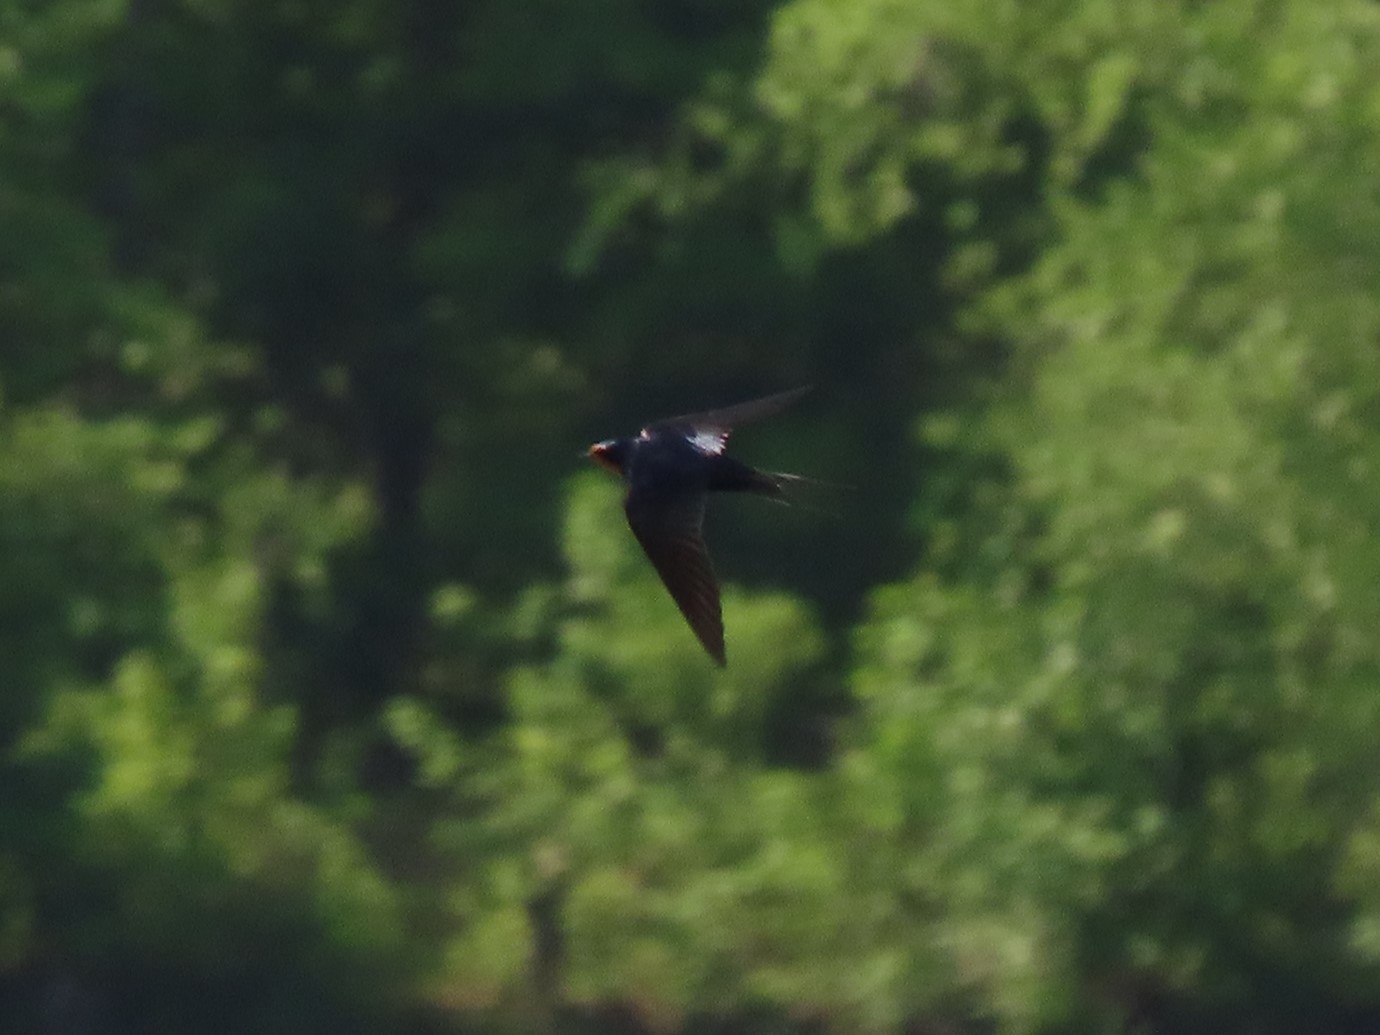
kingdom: Animalia
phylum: Chordata
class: Aves
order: Passeriformes
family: Hirundinidae
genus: Hirundo
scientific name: Hirundo rustica
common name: Barn swallow
